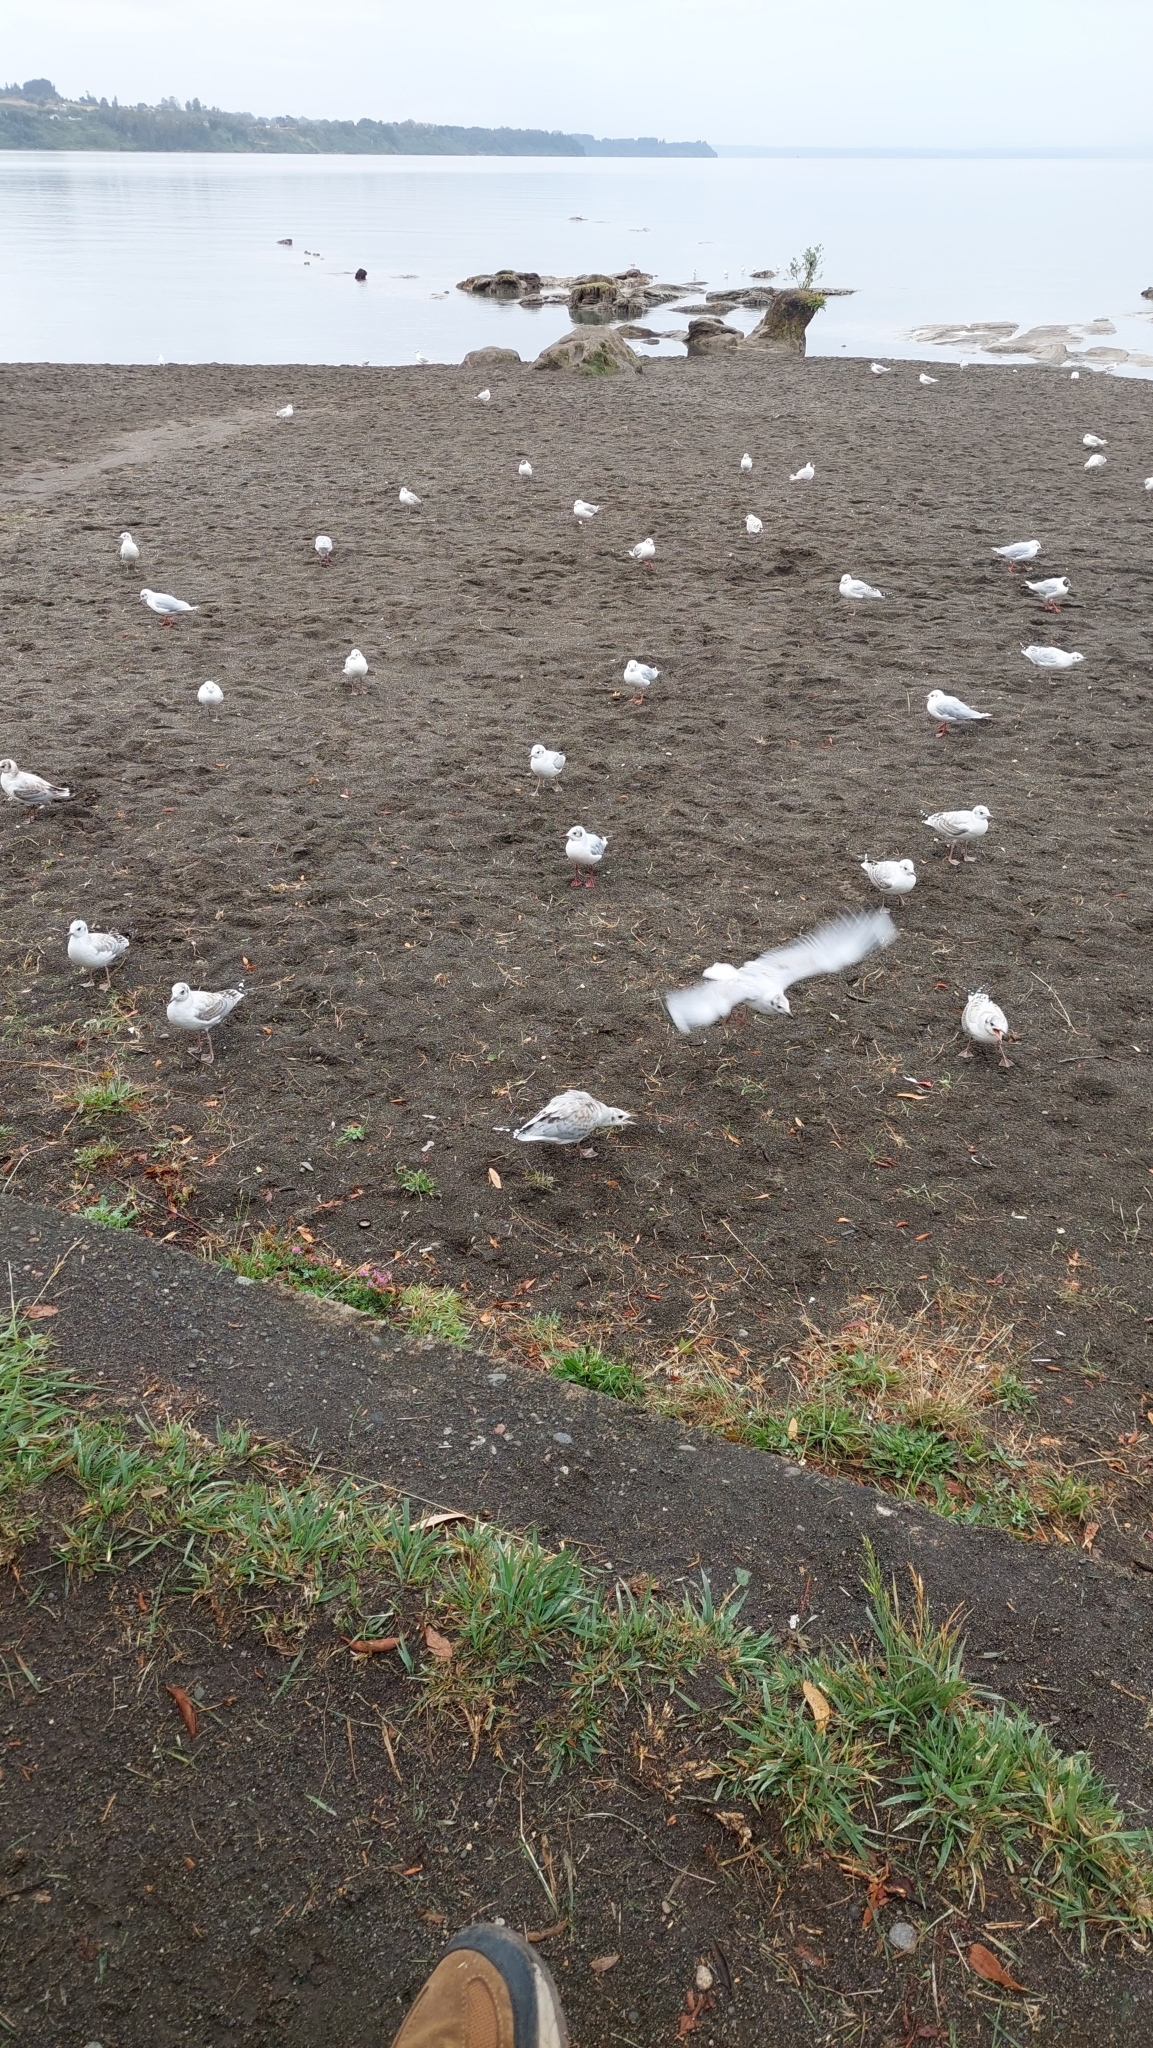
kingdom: Animalia
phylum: Chordata
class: Aves
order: Charadriiformes
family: Laridae
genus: Chroicocephalus
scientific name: Chroicocephalus maculipennis
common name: Brown-hooded gull
